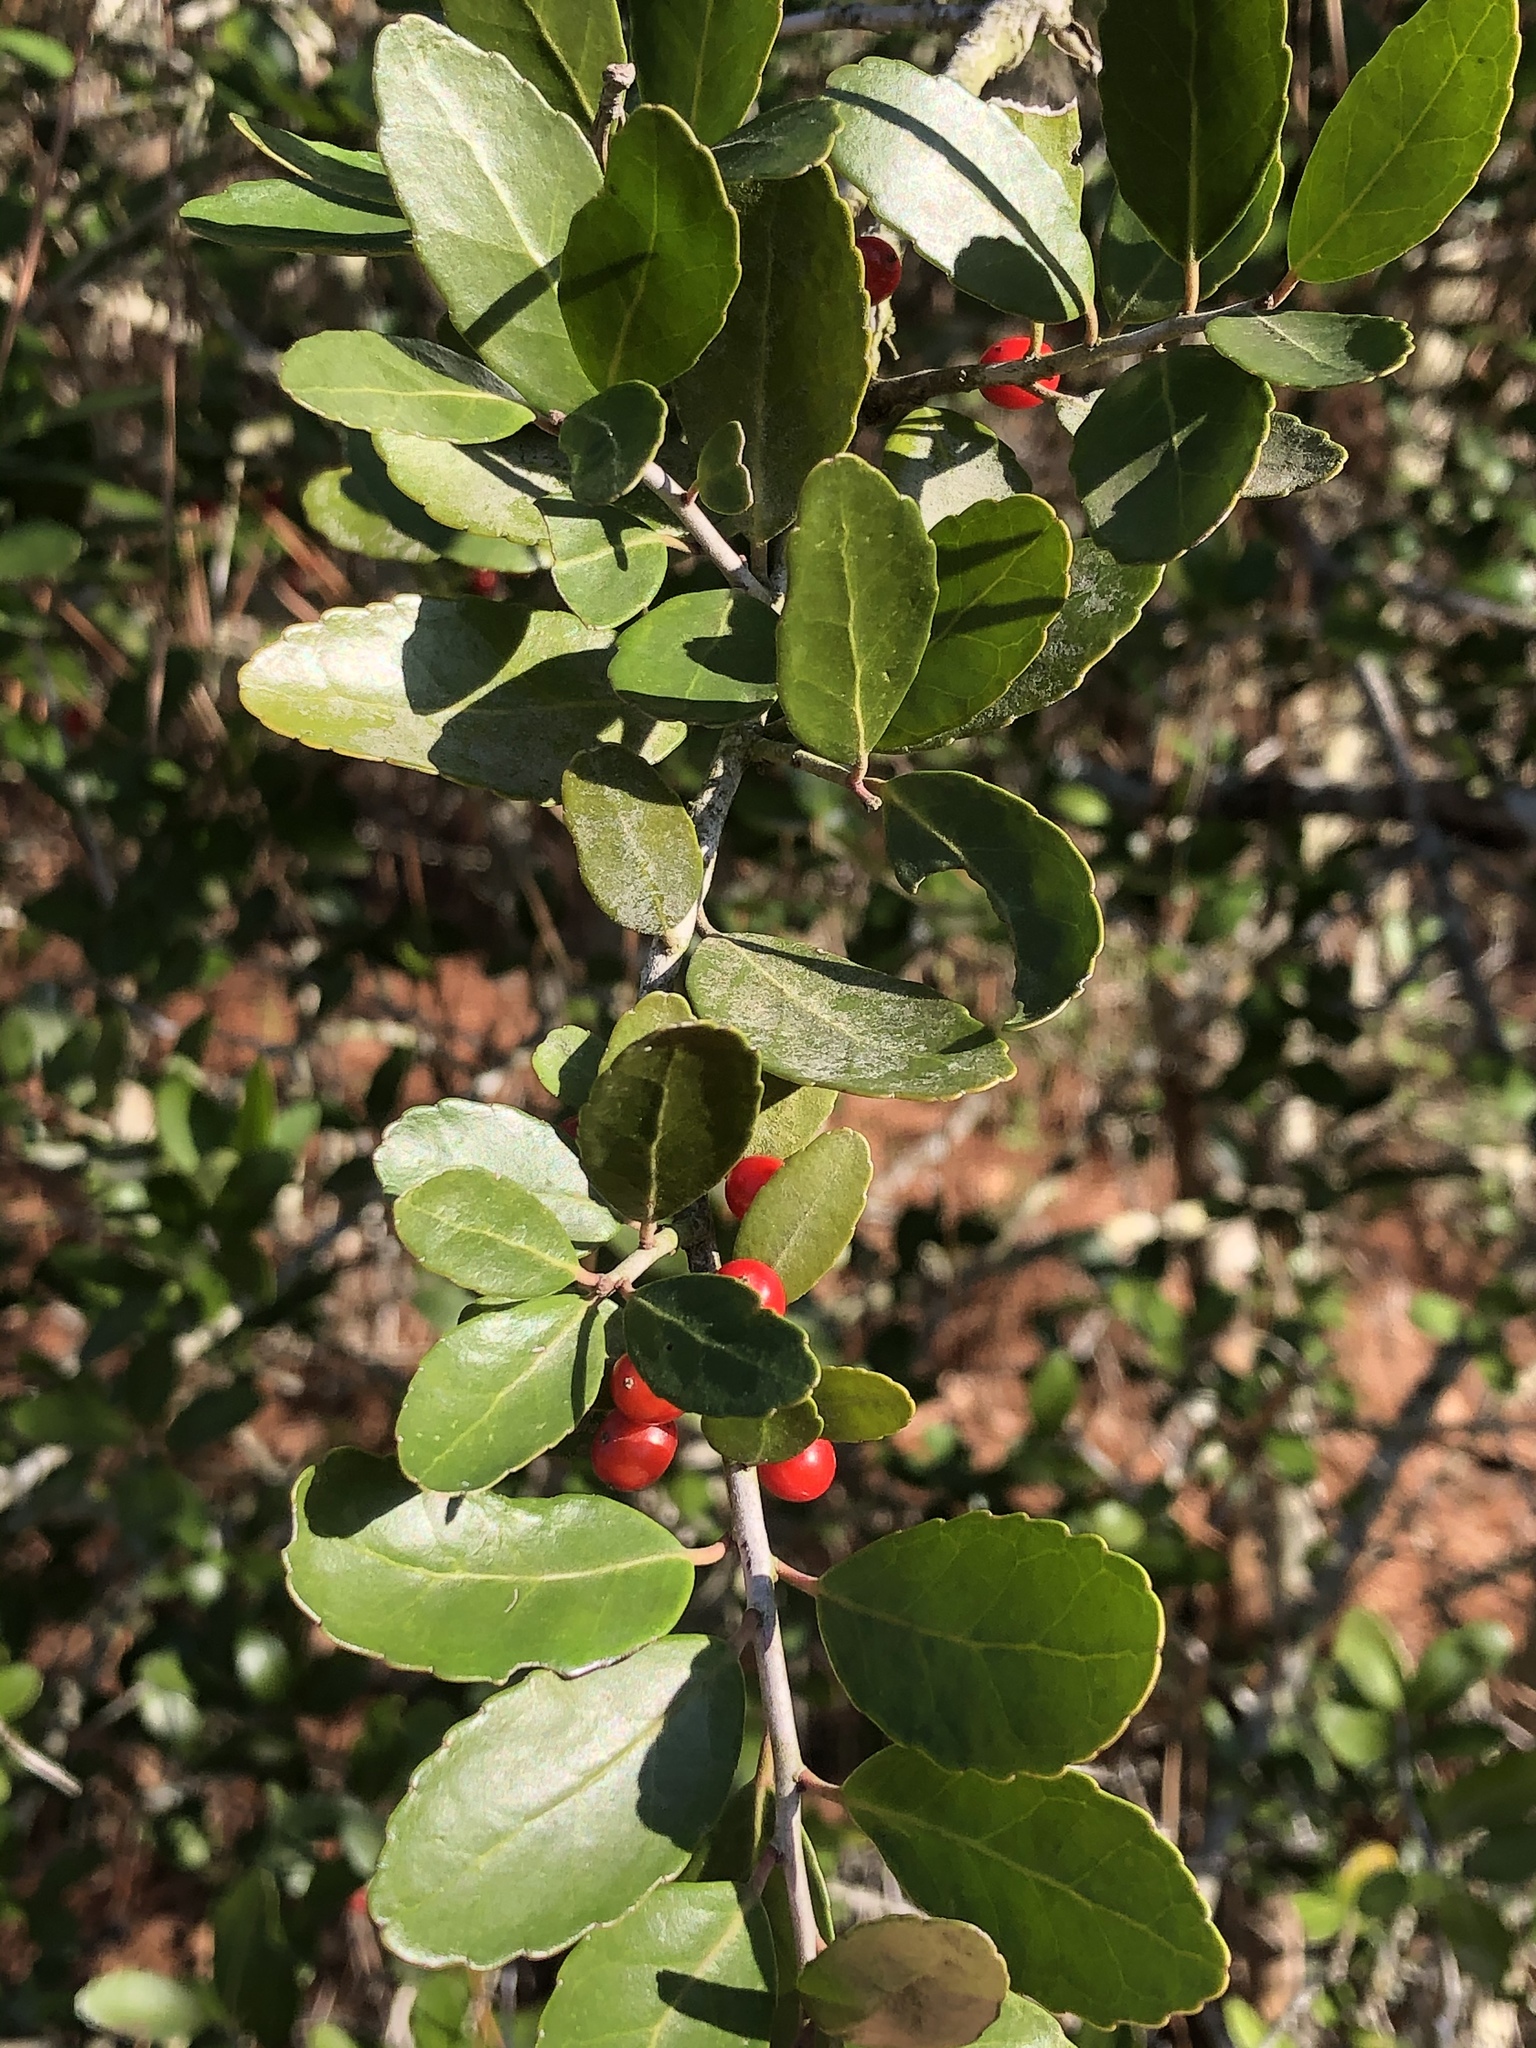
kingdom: Plantae
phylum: Tracheophyta
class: Magnoliopsida
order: Aquifoliales
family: Aquifoliaceae
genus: Ilex
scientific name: Ilex vomitoria
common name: Yaupon holly
